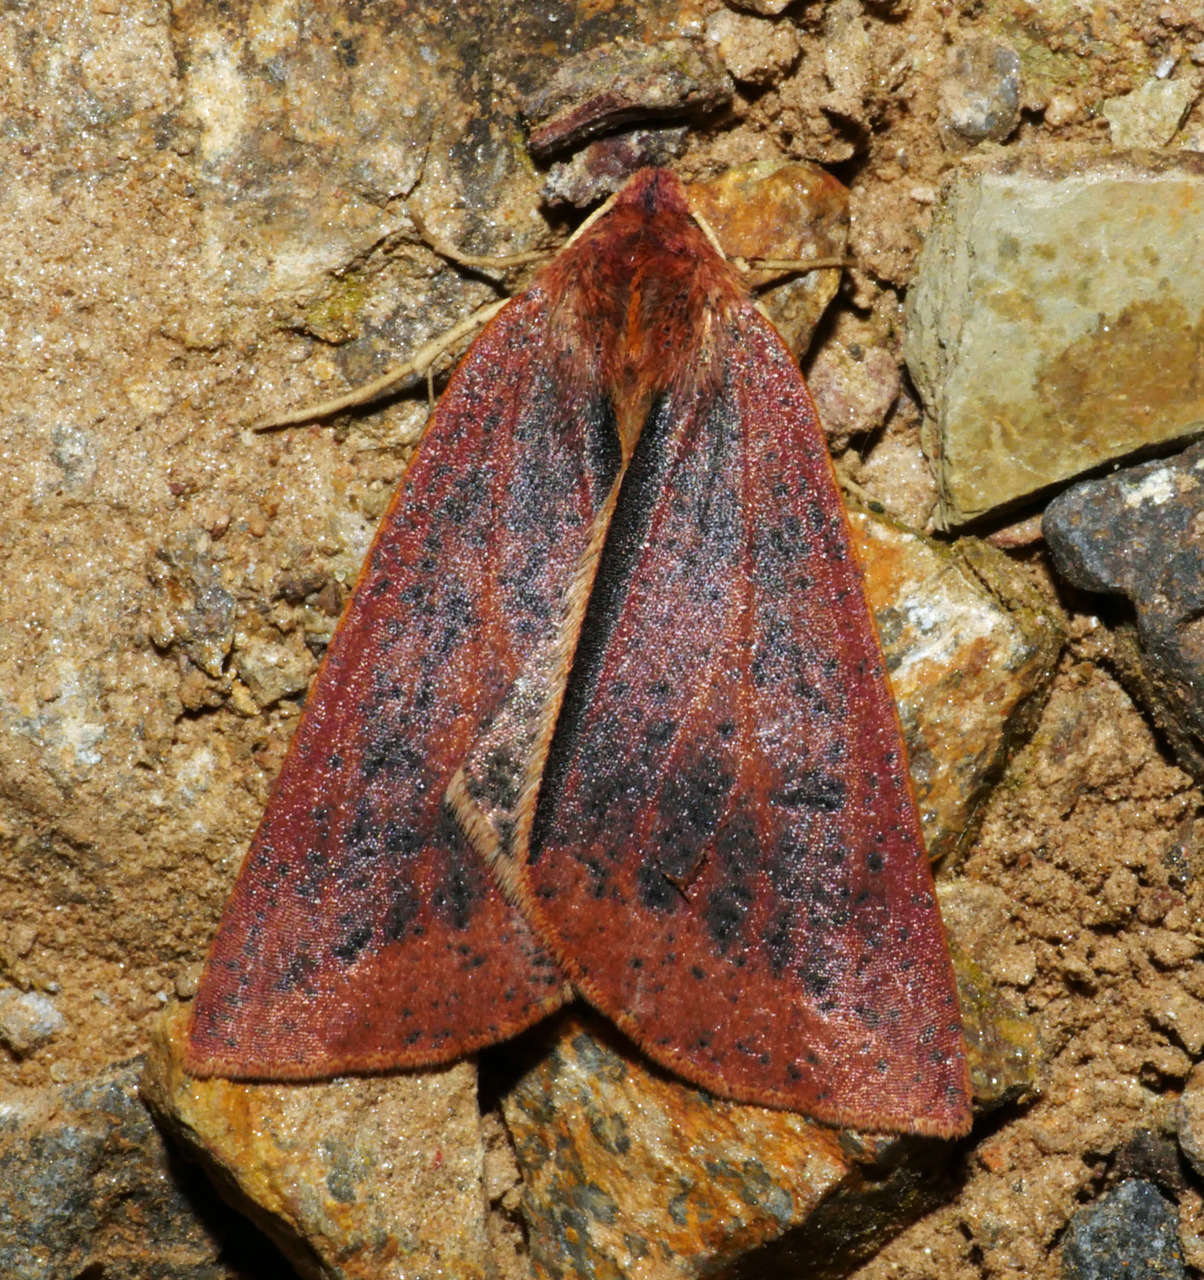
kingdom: Animalia
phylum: Arthropoda
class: Insecta
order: Lepidoptera
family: Geometridae
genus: Cycloprorodes
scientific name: Cycloprorodes melanoxysta
